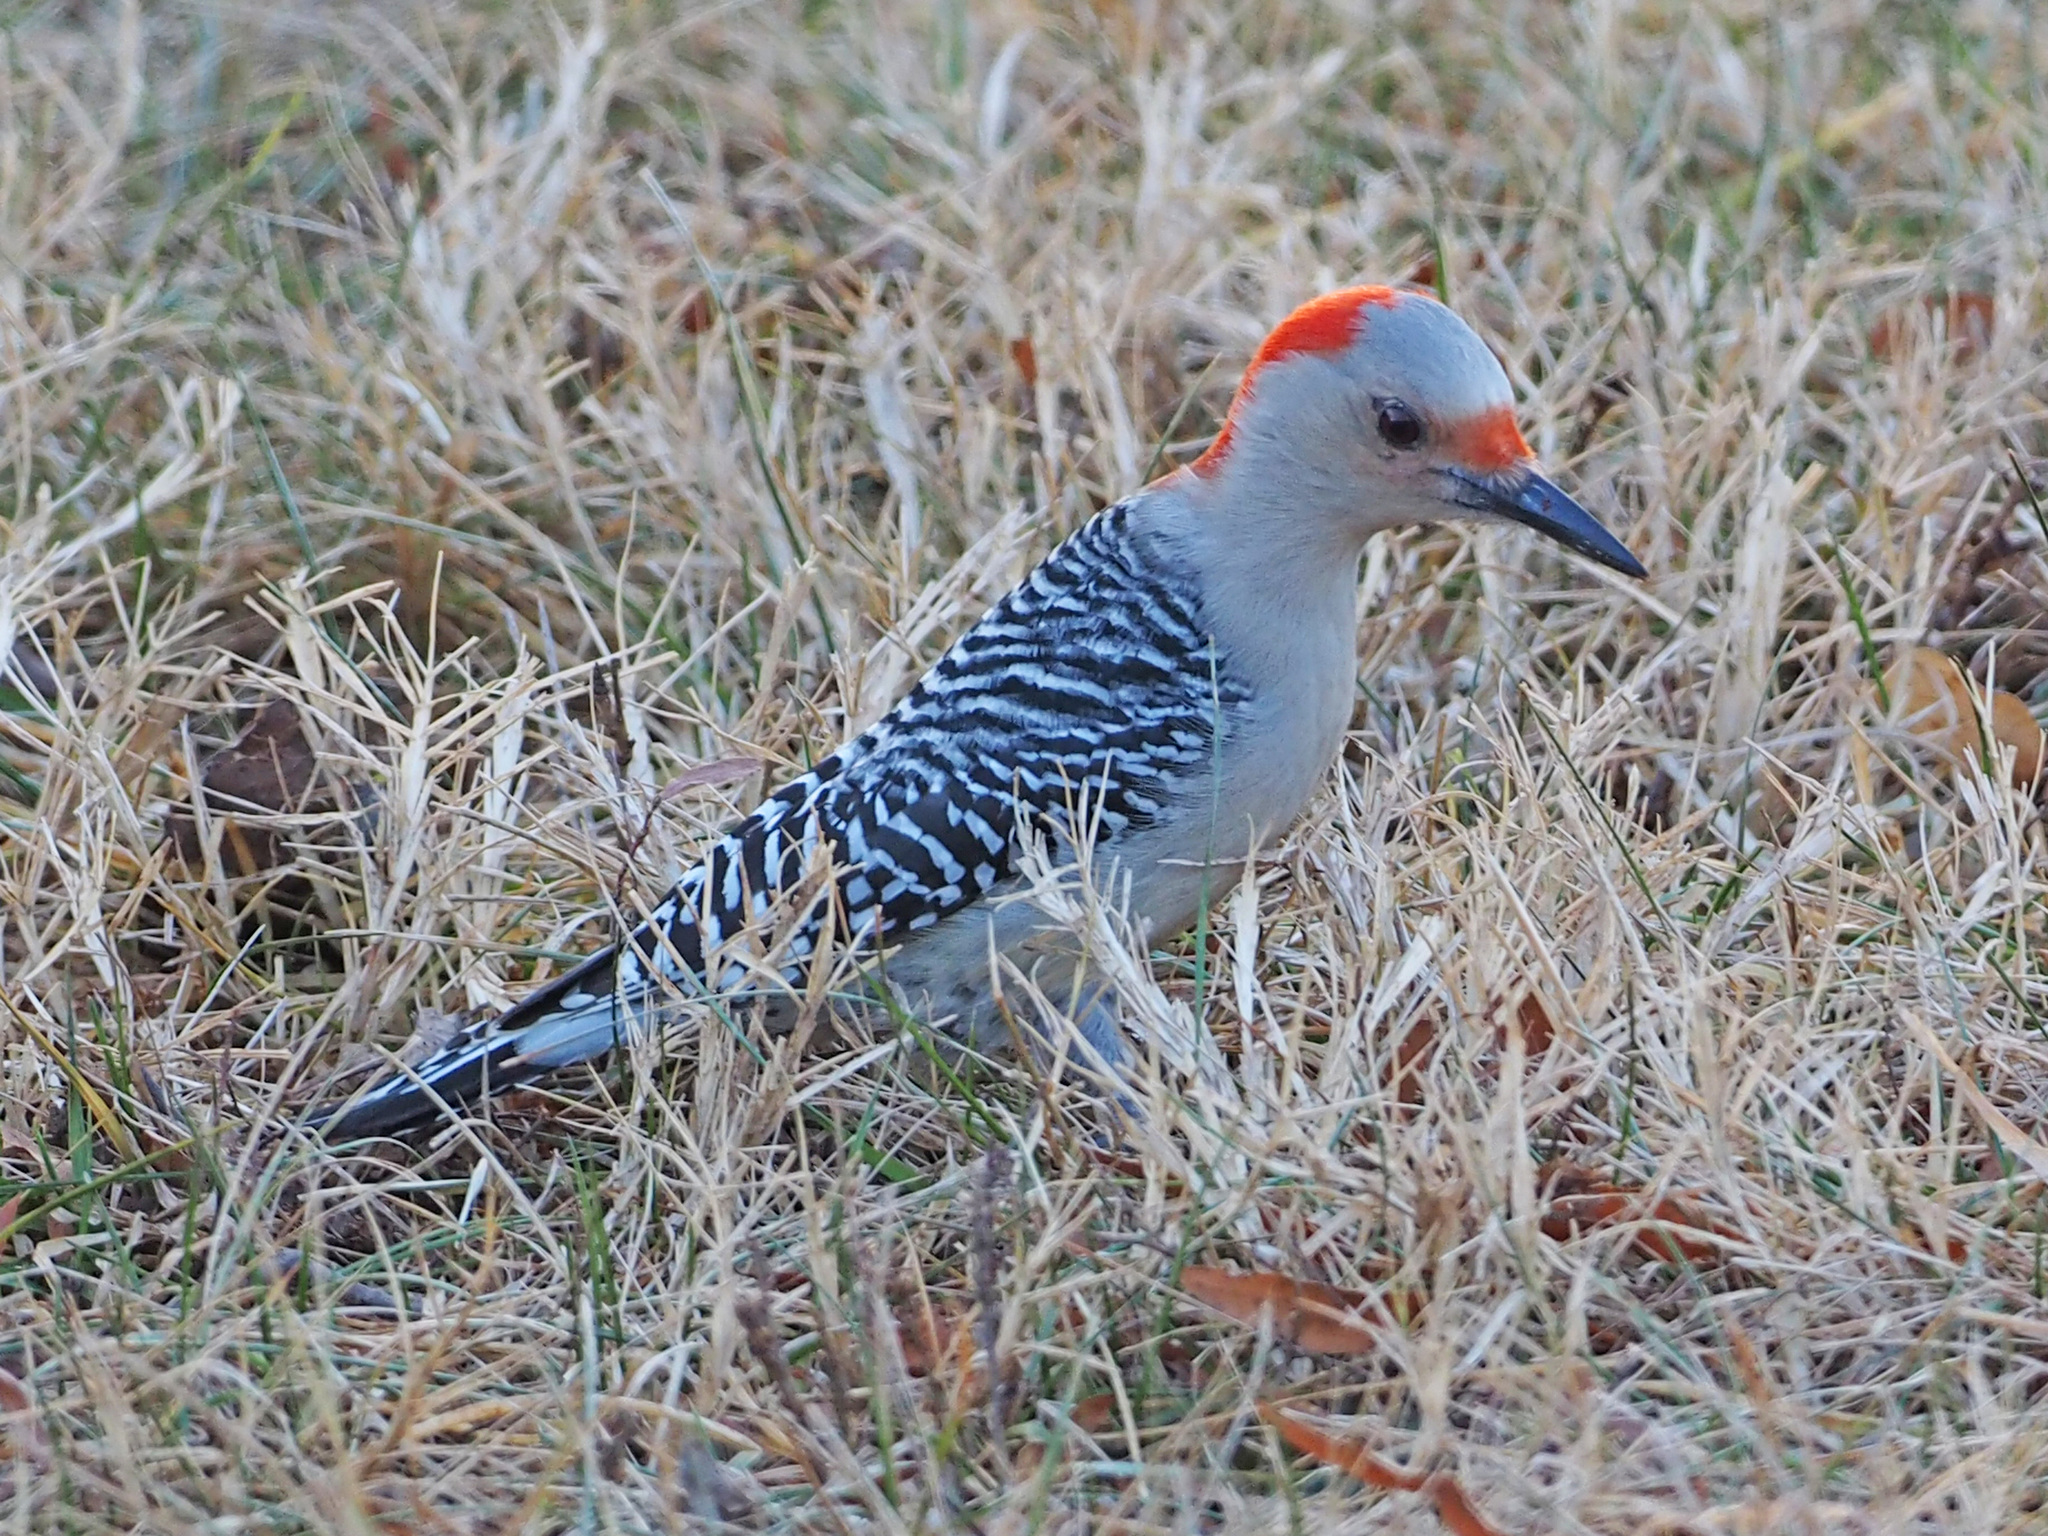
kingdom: Animalia
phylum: Chordata
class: Aves
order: Piciformes
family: Picidae
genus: Melanerpes
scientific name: Melanerpes carolinus
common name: Red-bellied woodpecker
